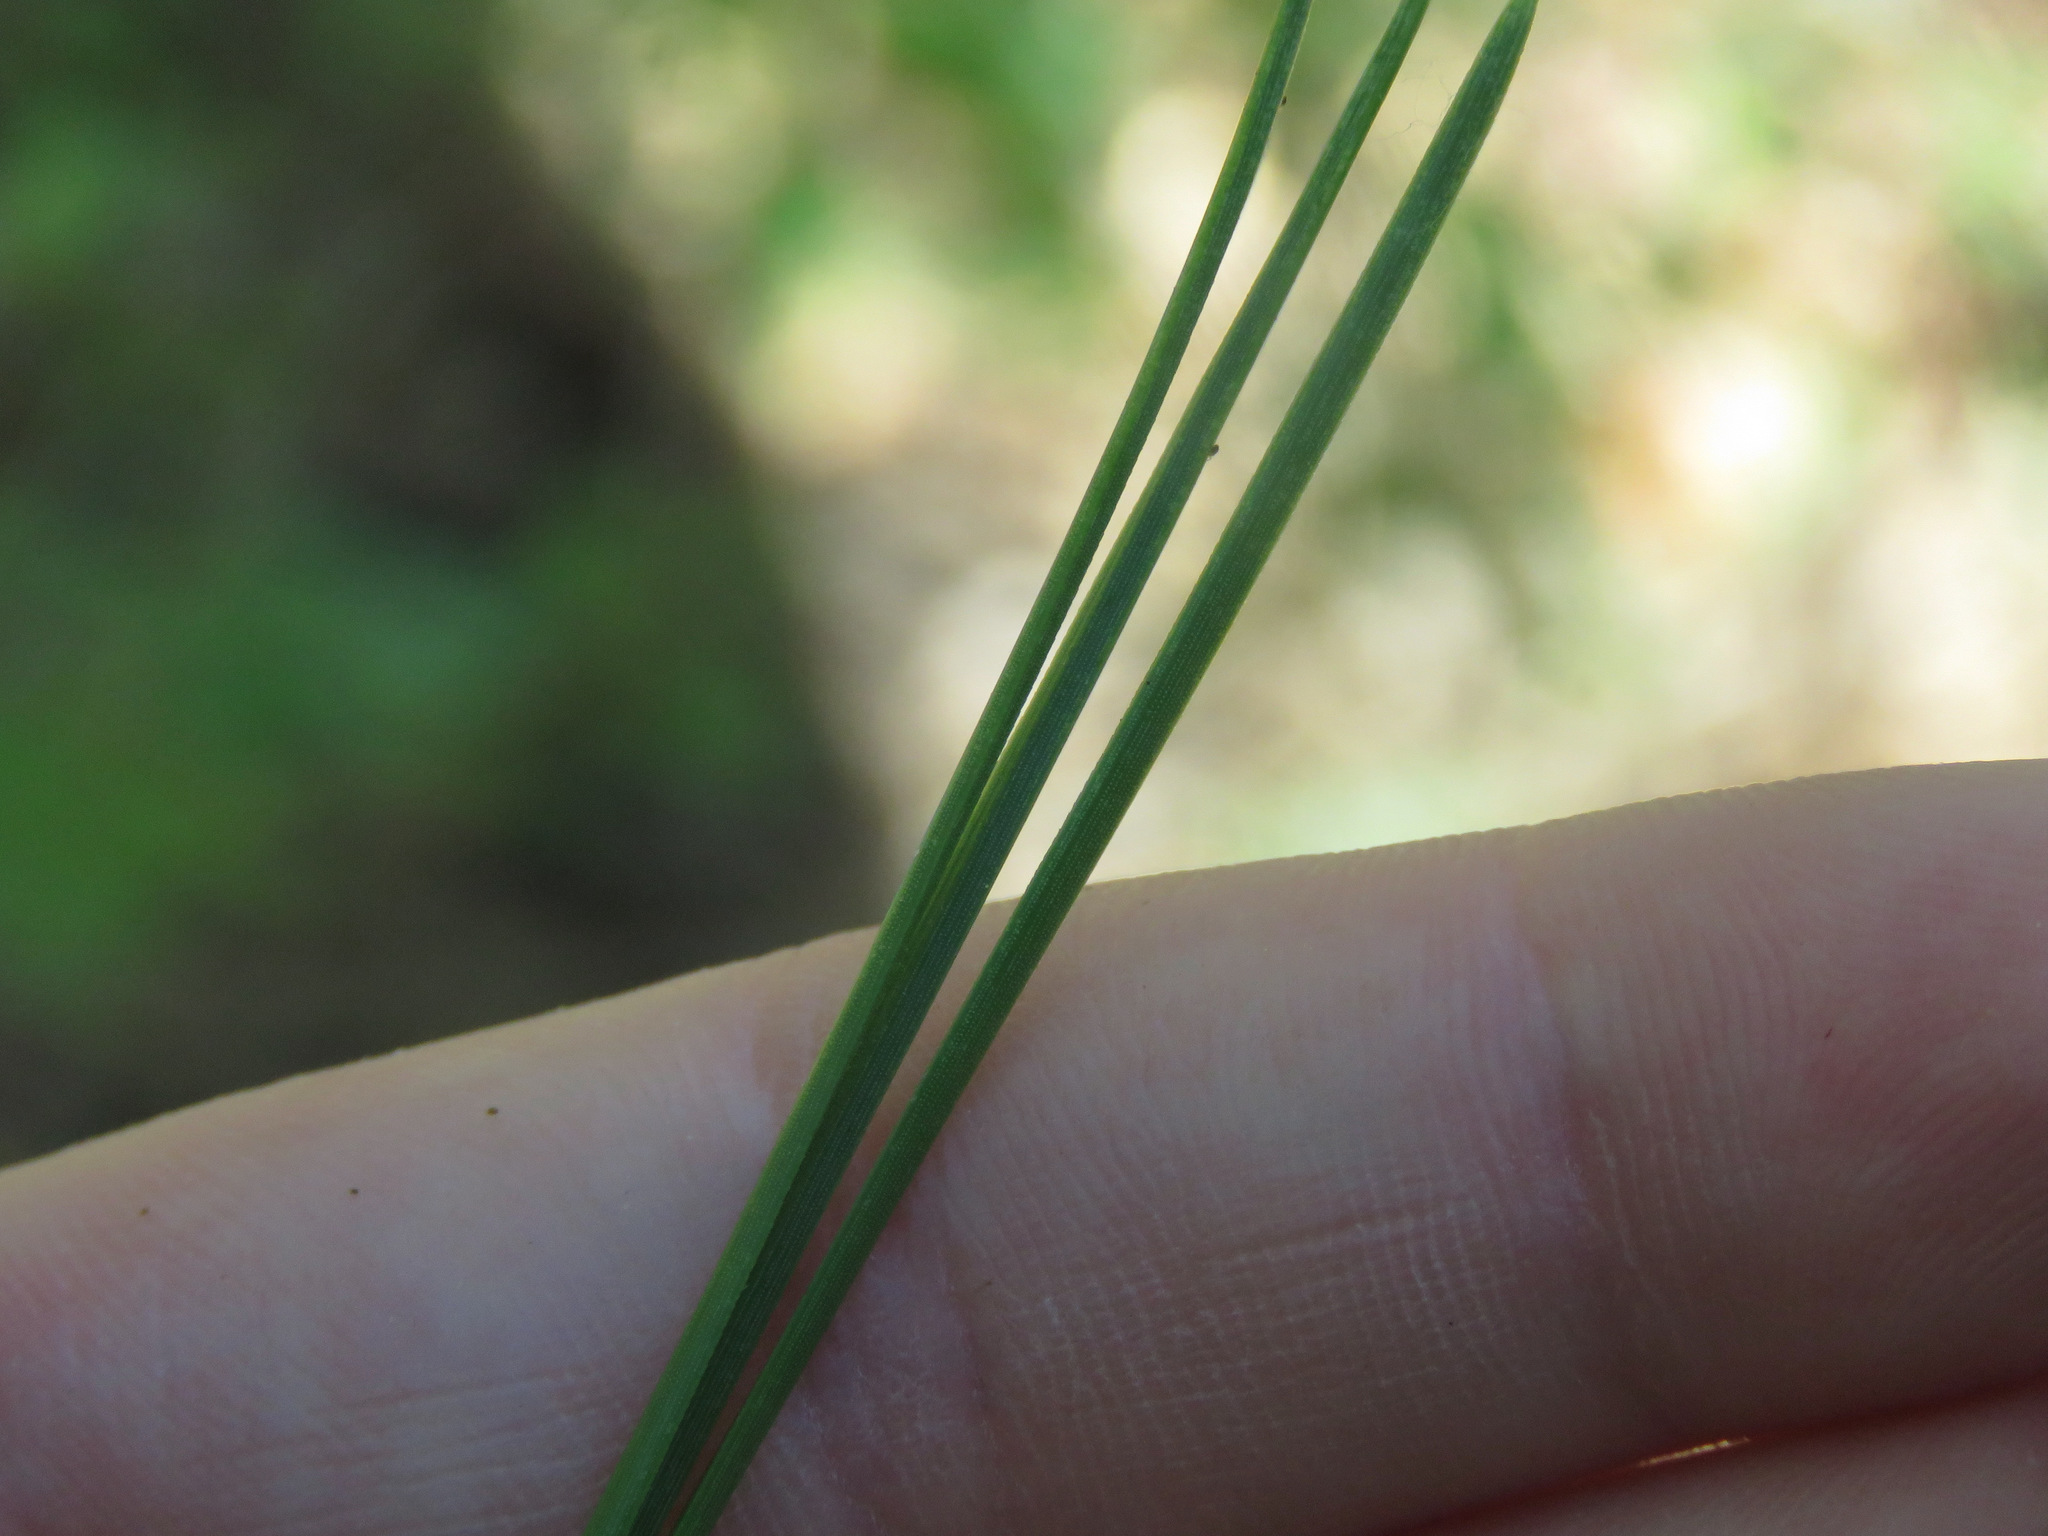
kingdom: Plantae
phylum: Tracheophyta
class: Pinopsida
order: Pinales
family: Pinaceae
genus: Pinus
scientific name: Pinus ponderosa
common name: Western yellow-pine
